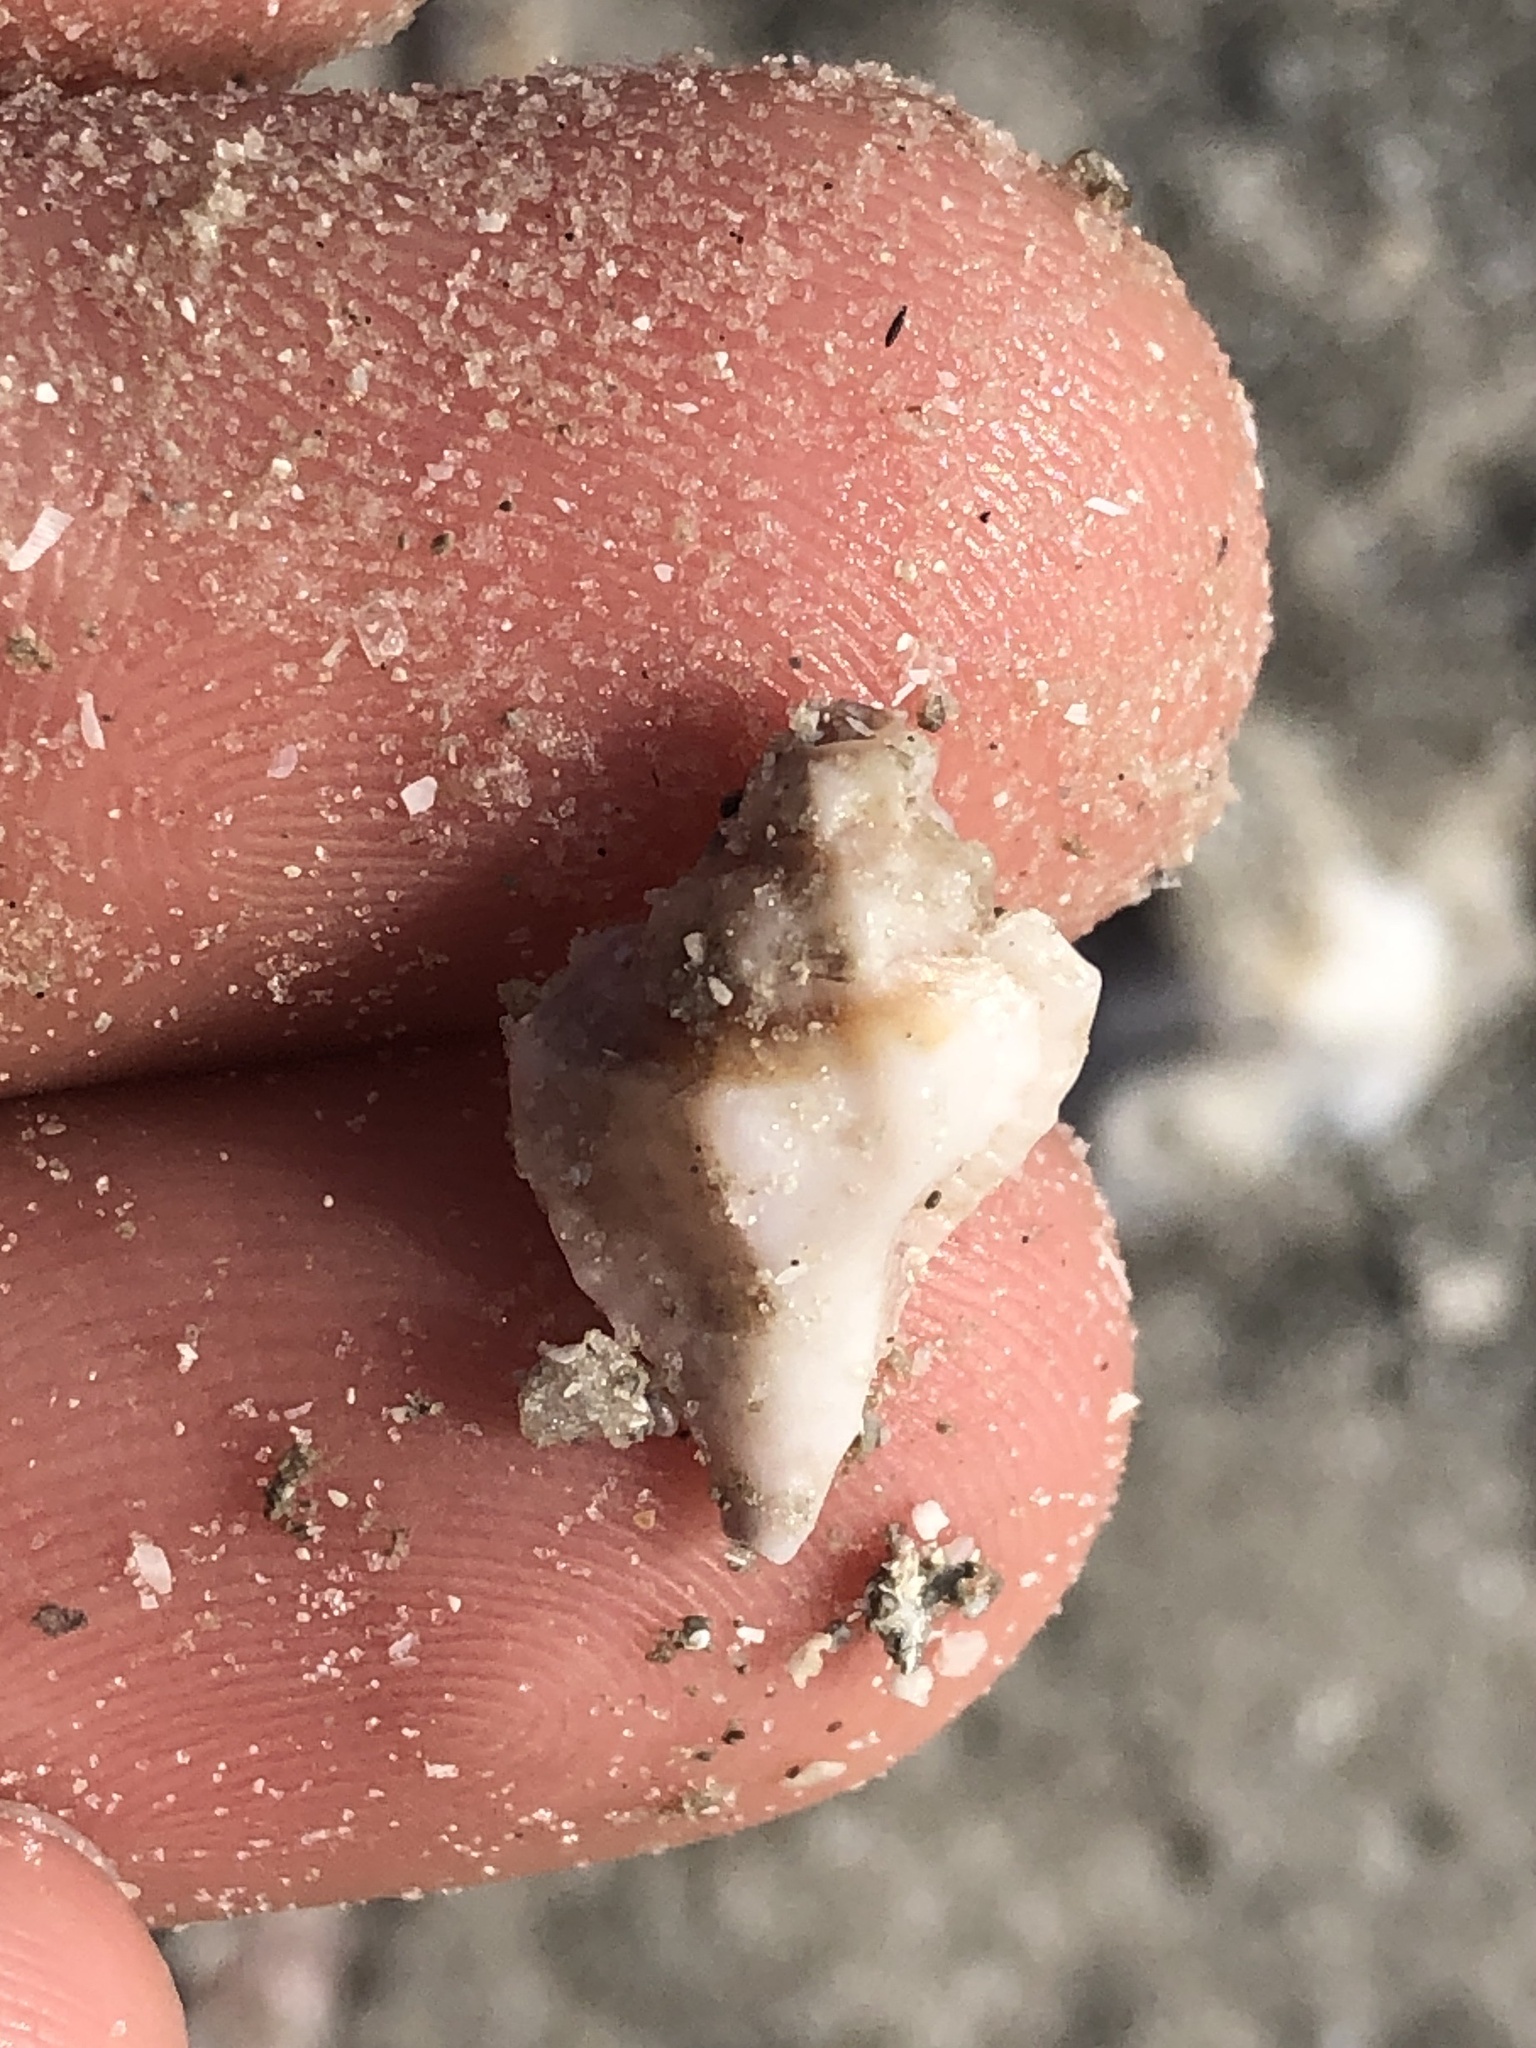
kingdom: Animalia
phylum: Mollusca
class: Gastropoda
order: Neogastropoda
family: Muricidae
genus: Eupleura
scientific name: Eupleura sulcidentata
